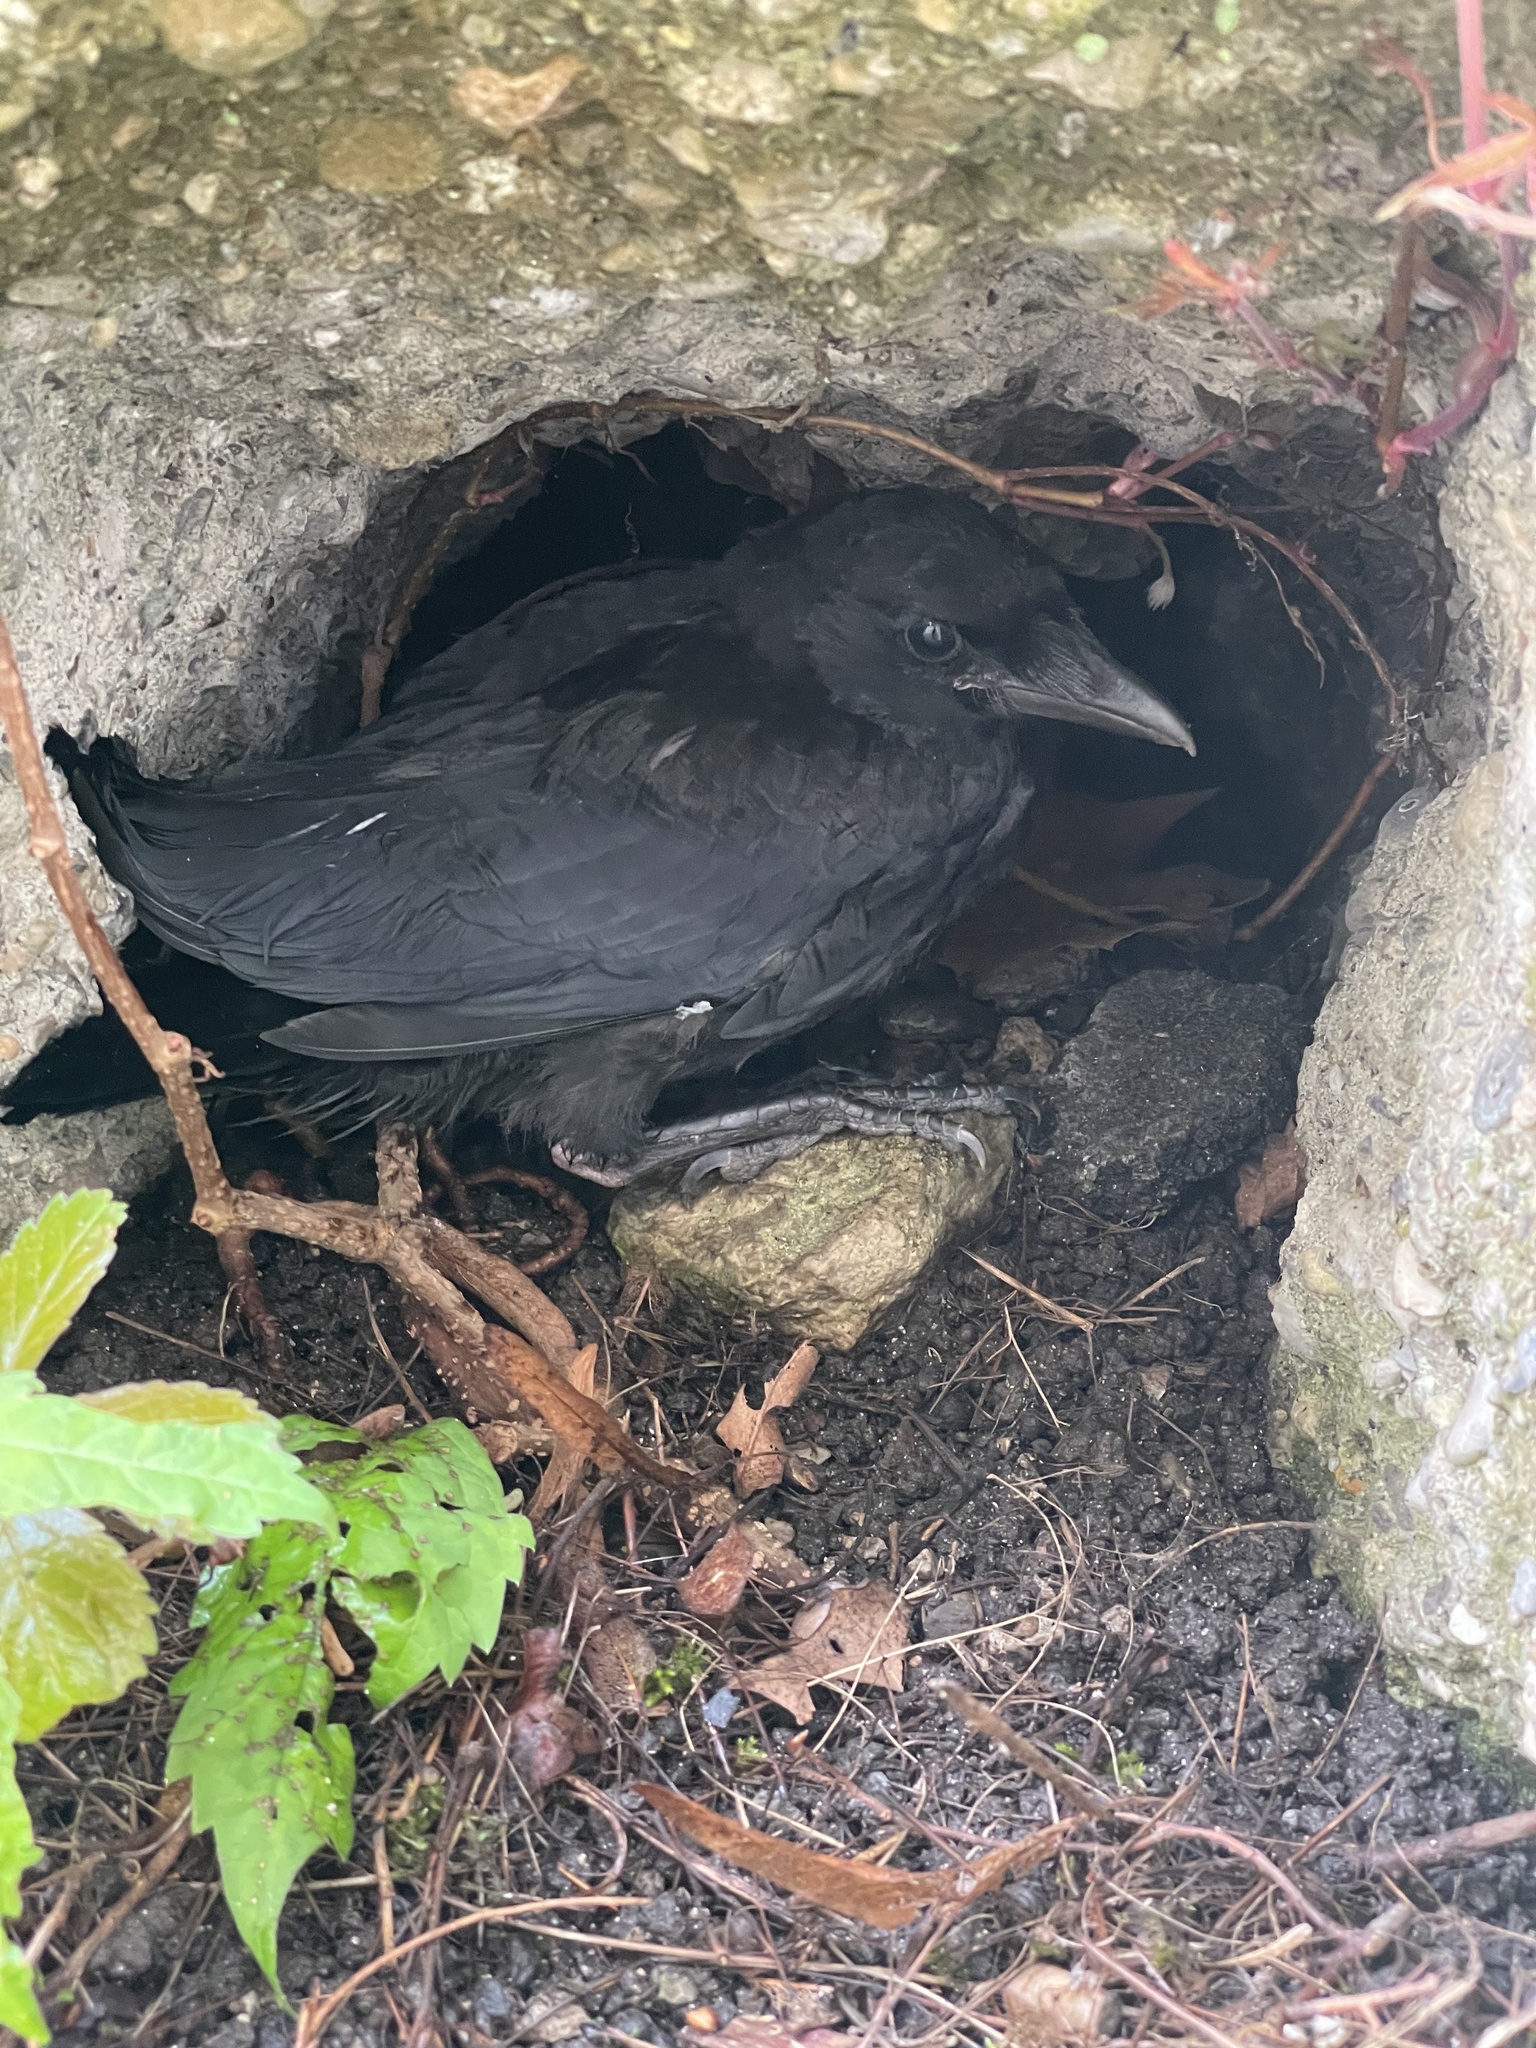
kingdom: Animalia
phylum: Chordata
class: Aves
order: Passeriformes
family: Corvidae
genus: Corvus
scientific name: Corvus corone
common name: Carrion crow
